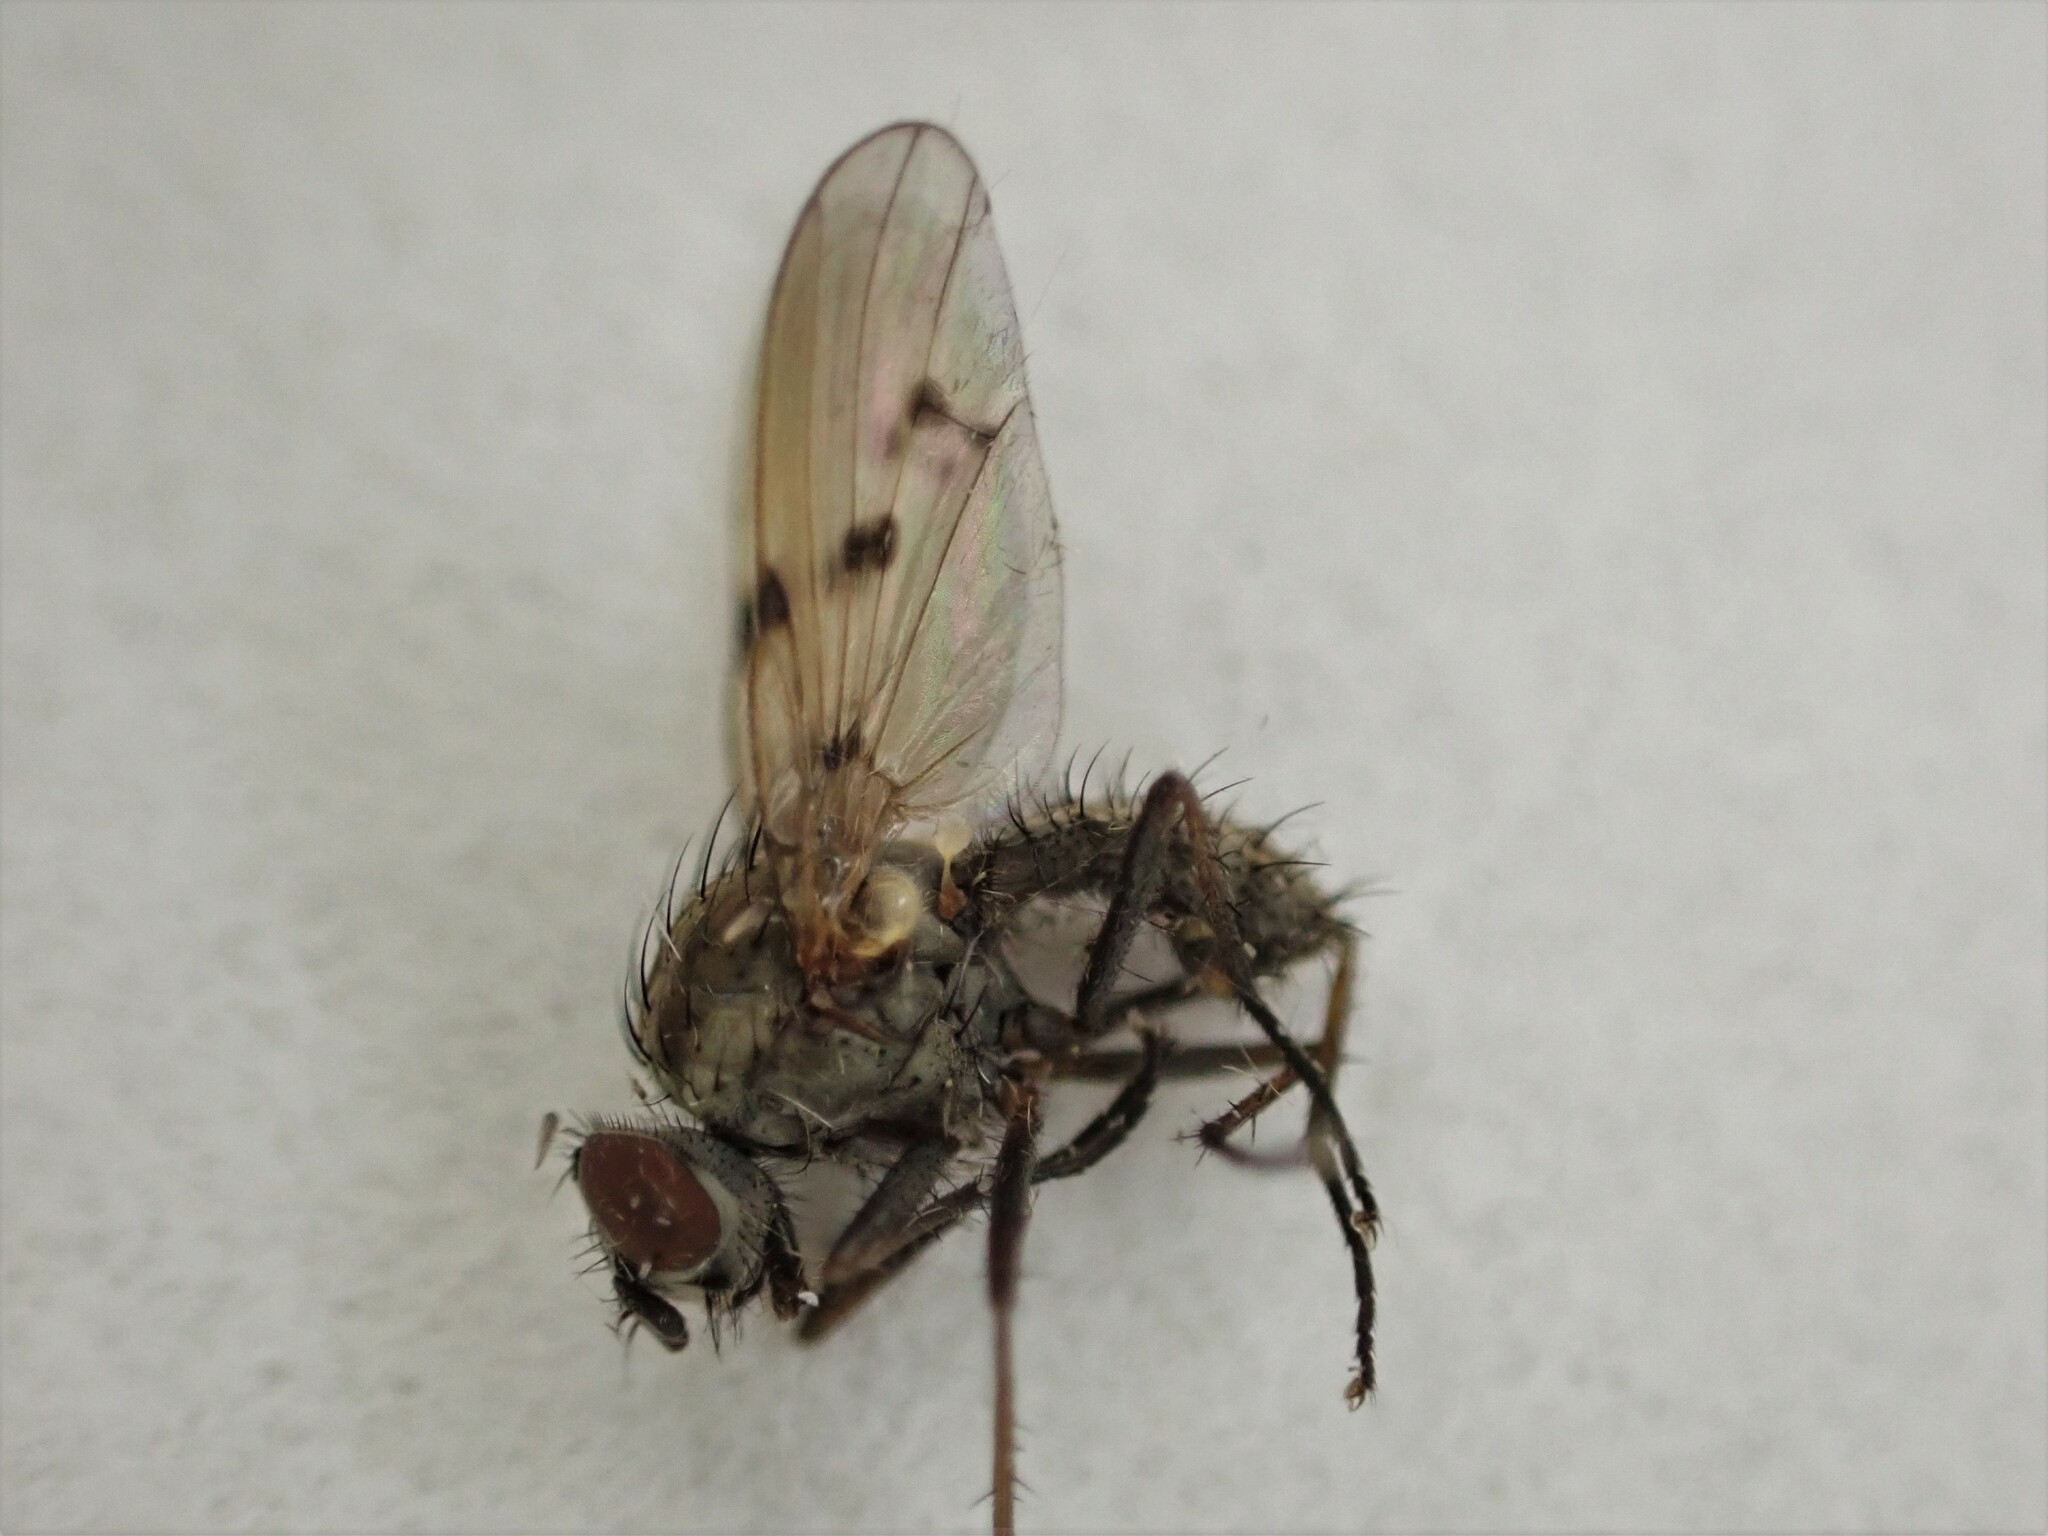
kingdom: Animalia
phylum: Arthropoda
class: Insecta
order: Diptera
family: Anthomyiidae
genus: Anthomyia
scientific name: Anthomyia punctipennis
